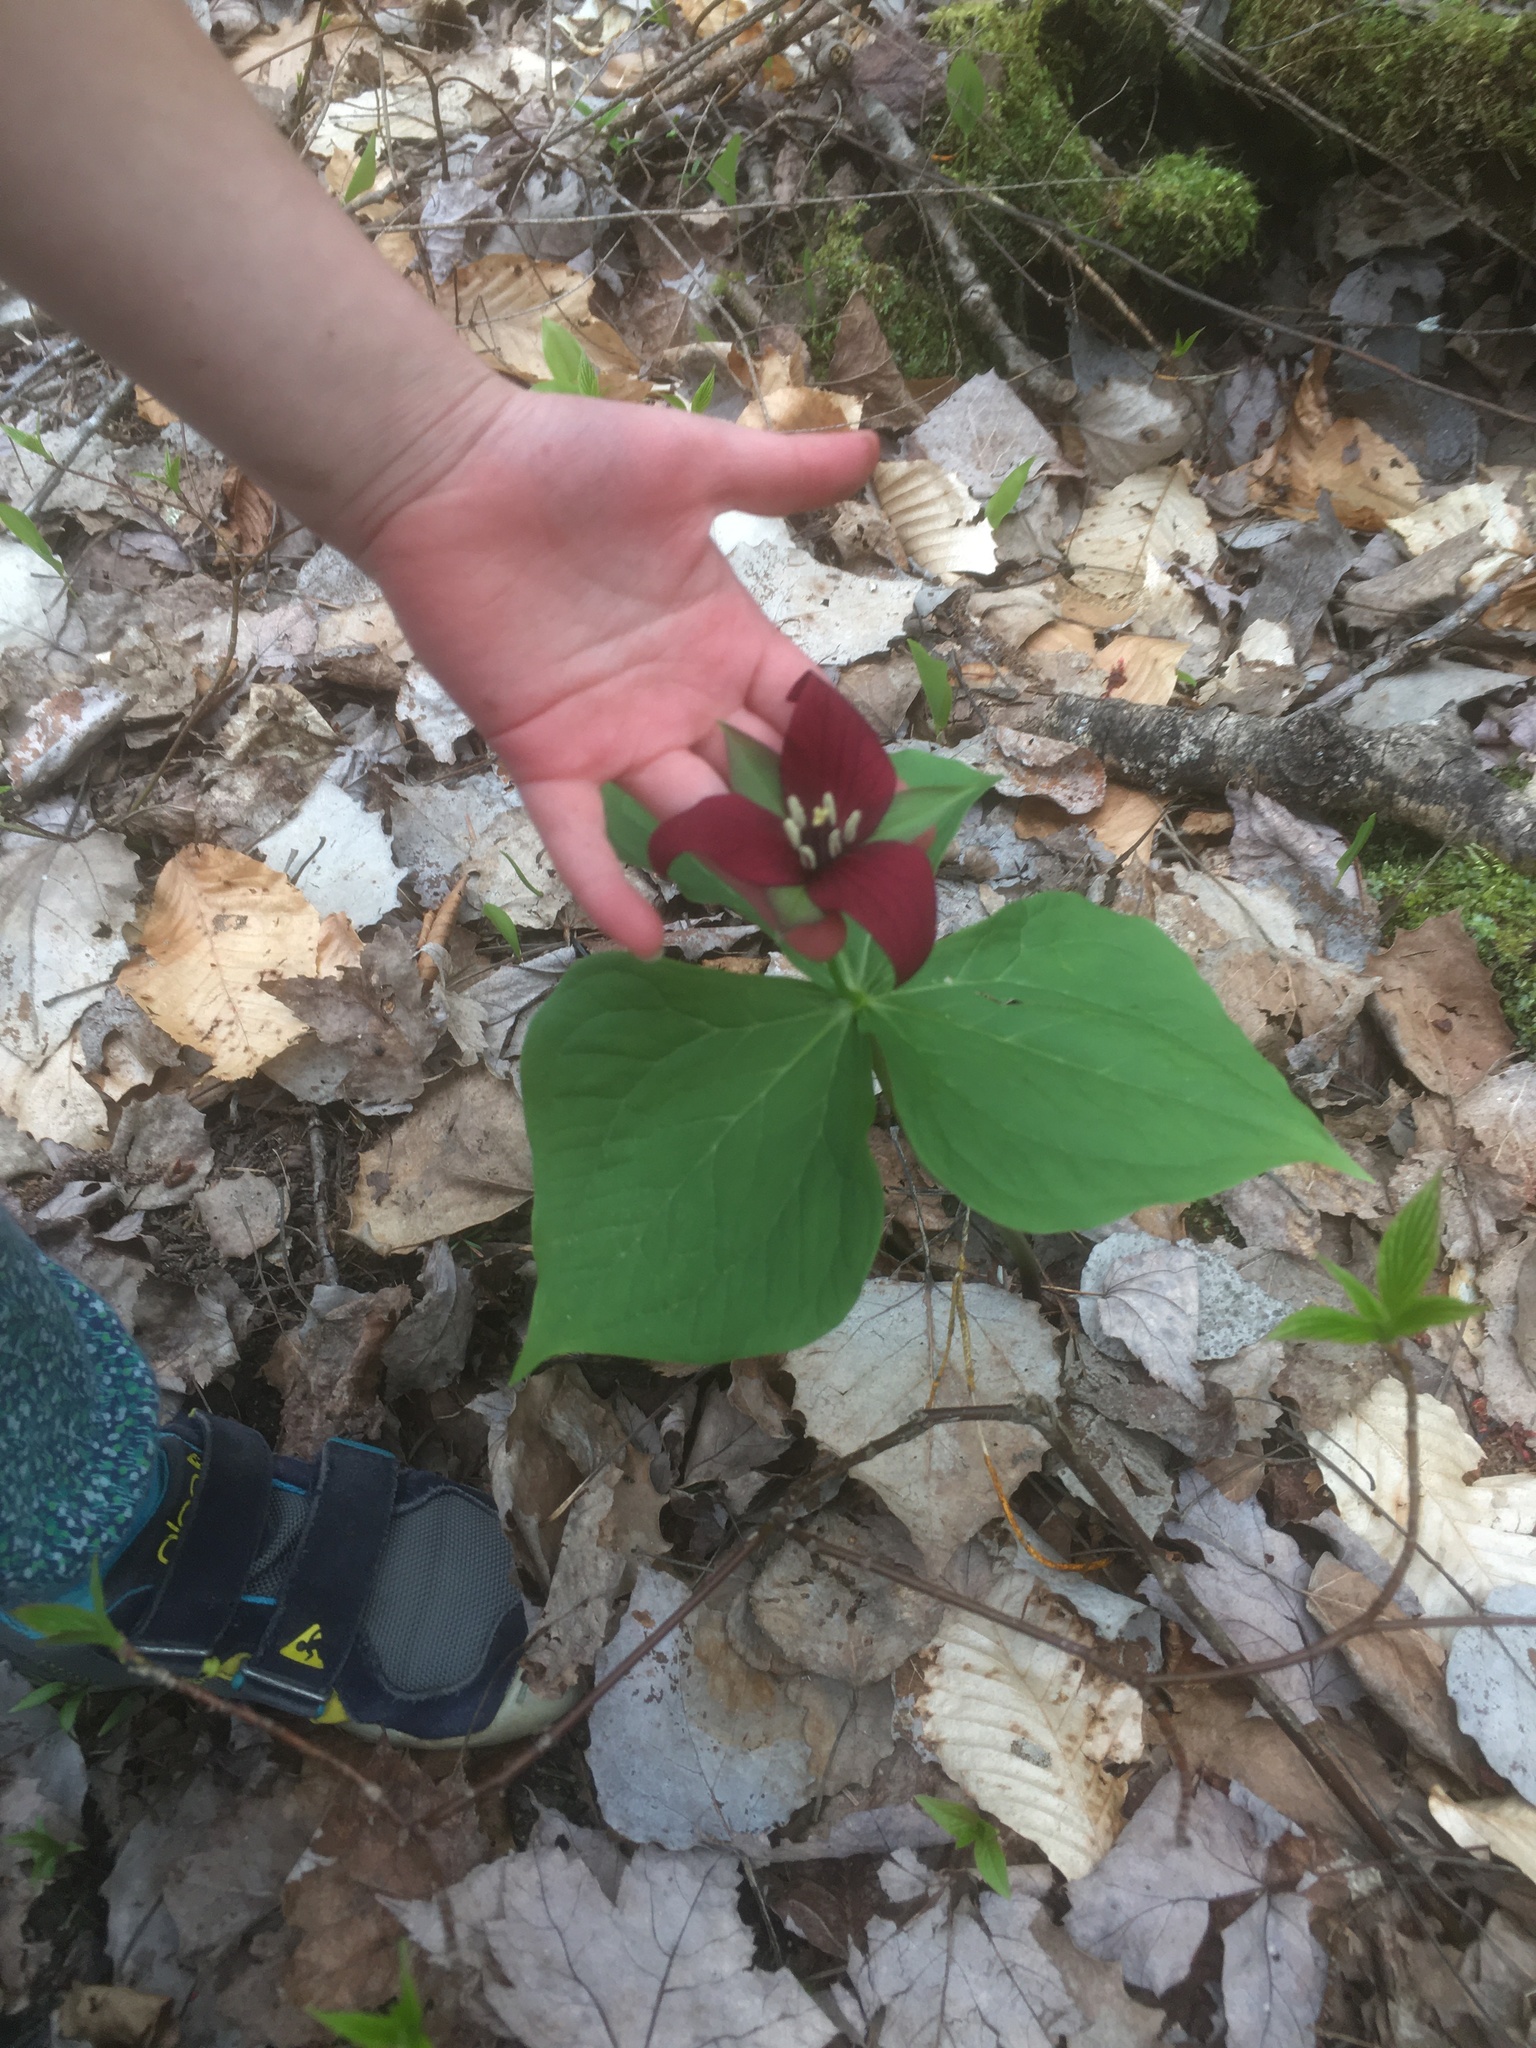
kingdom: Plantae
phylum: Tracheophyta
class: Liliopsida
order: Liliales
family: Melanthiaceae
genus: Trillium
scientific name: Trillium erectum
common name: Purple trillium
